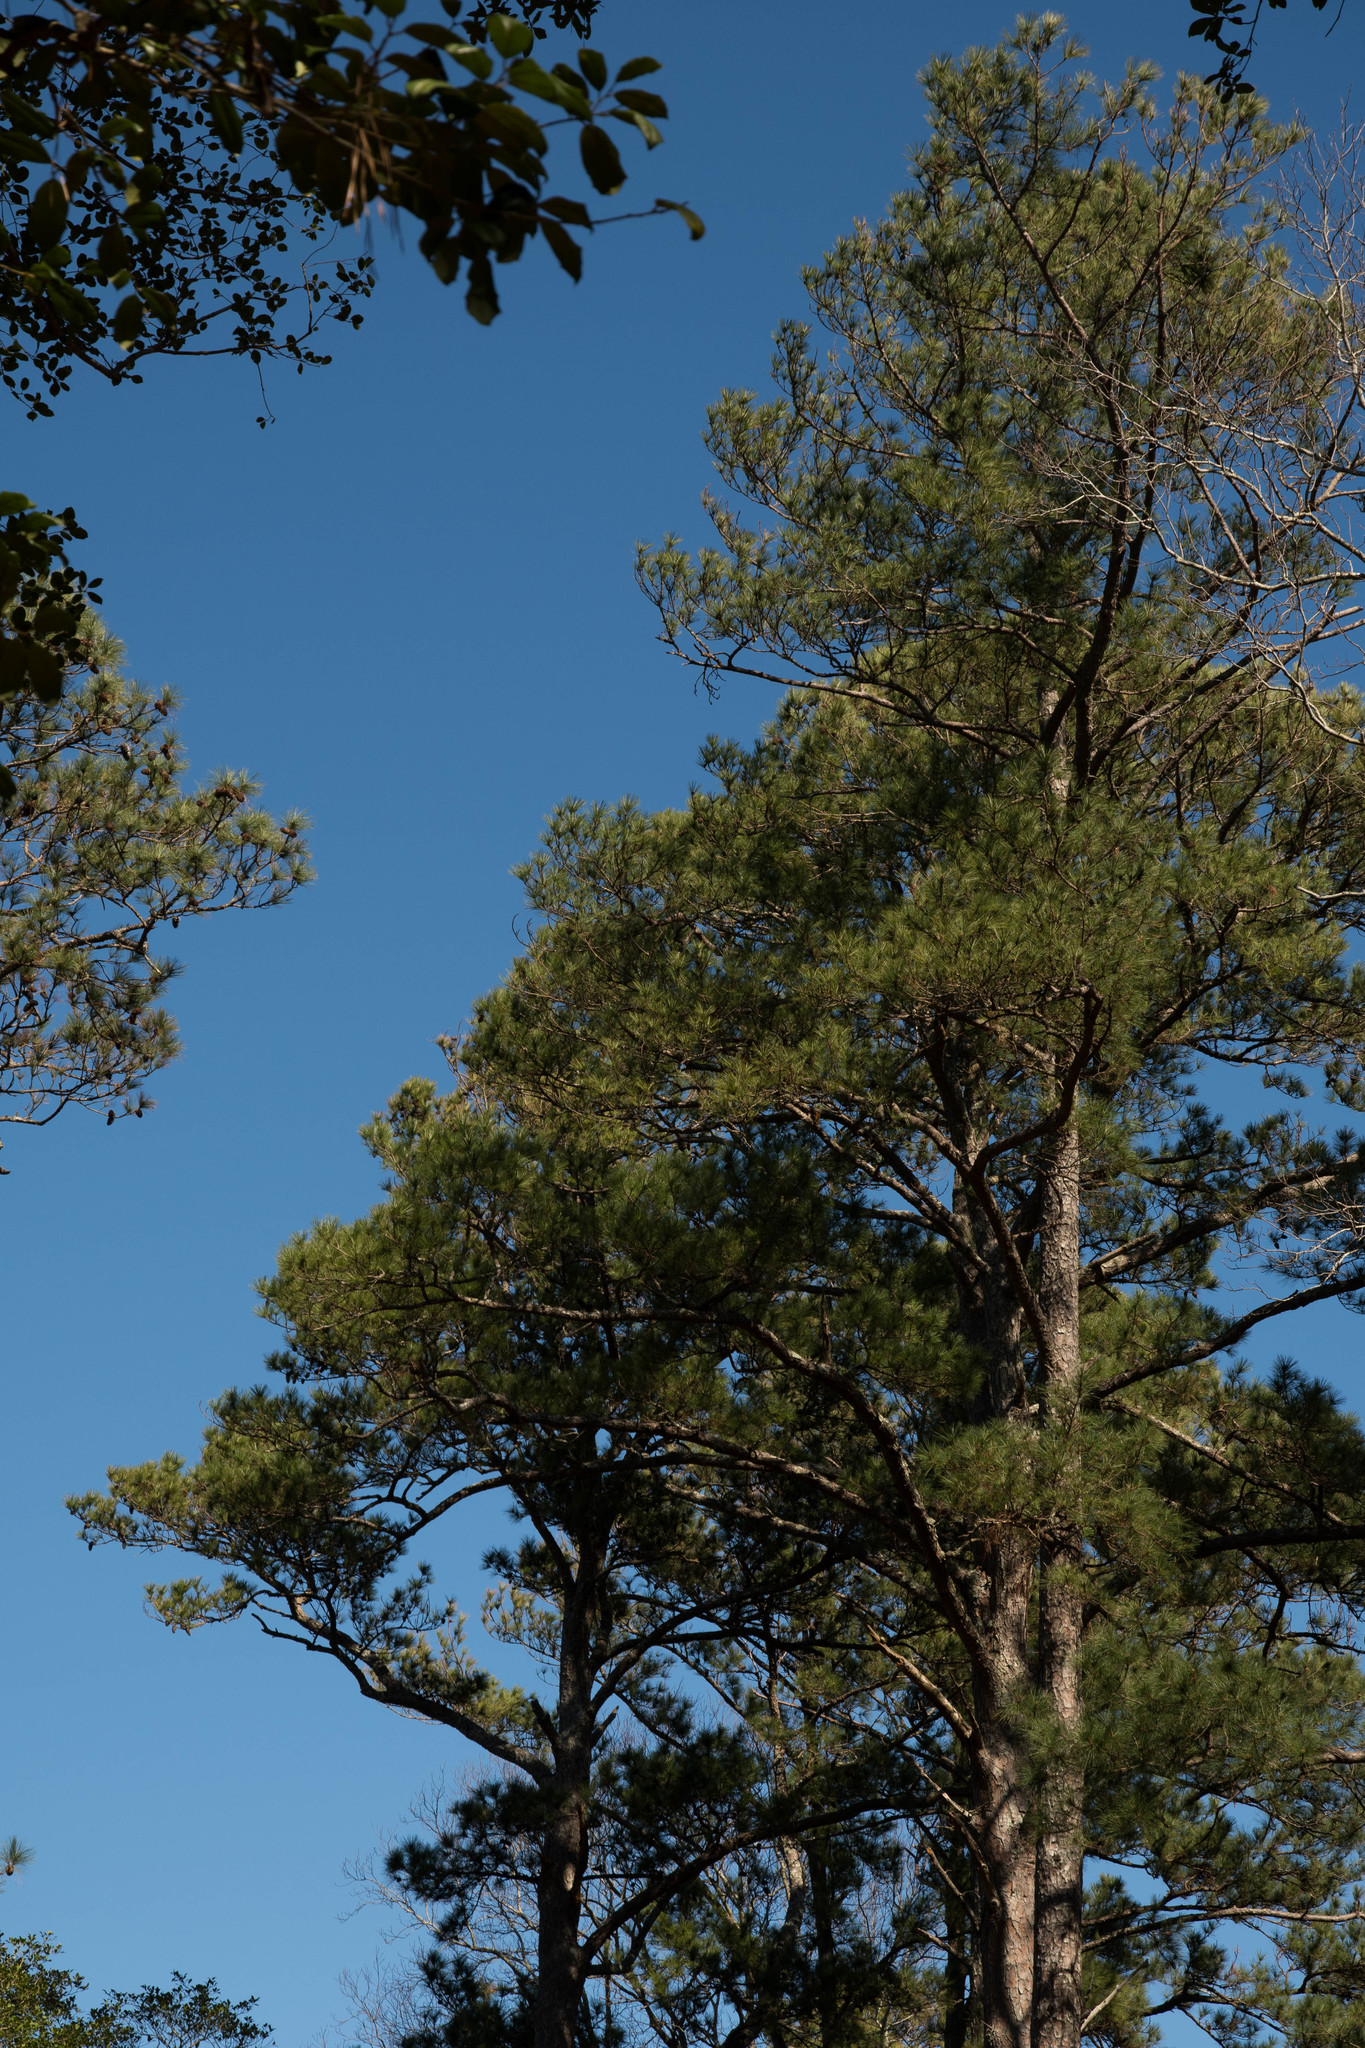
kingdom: Plantae
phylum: Tracheophyta
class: Pinopsida
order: Pinales
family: Pinaceae
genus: Pinus
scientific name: Pinus taeda
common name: Loblolly pine
